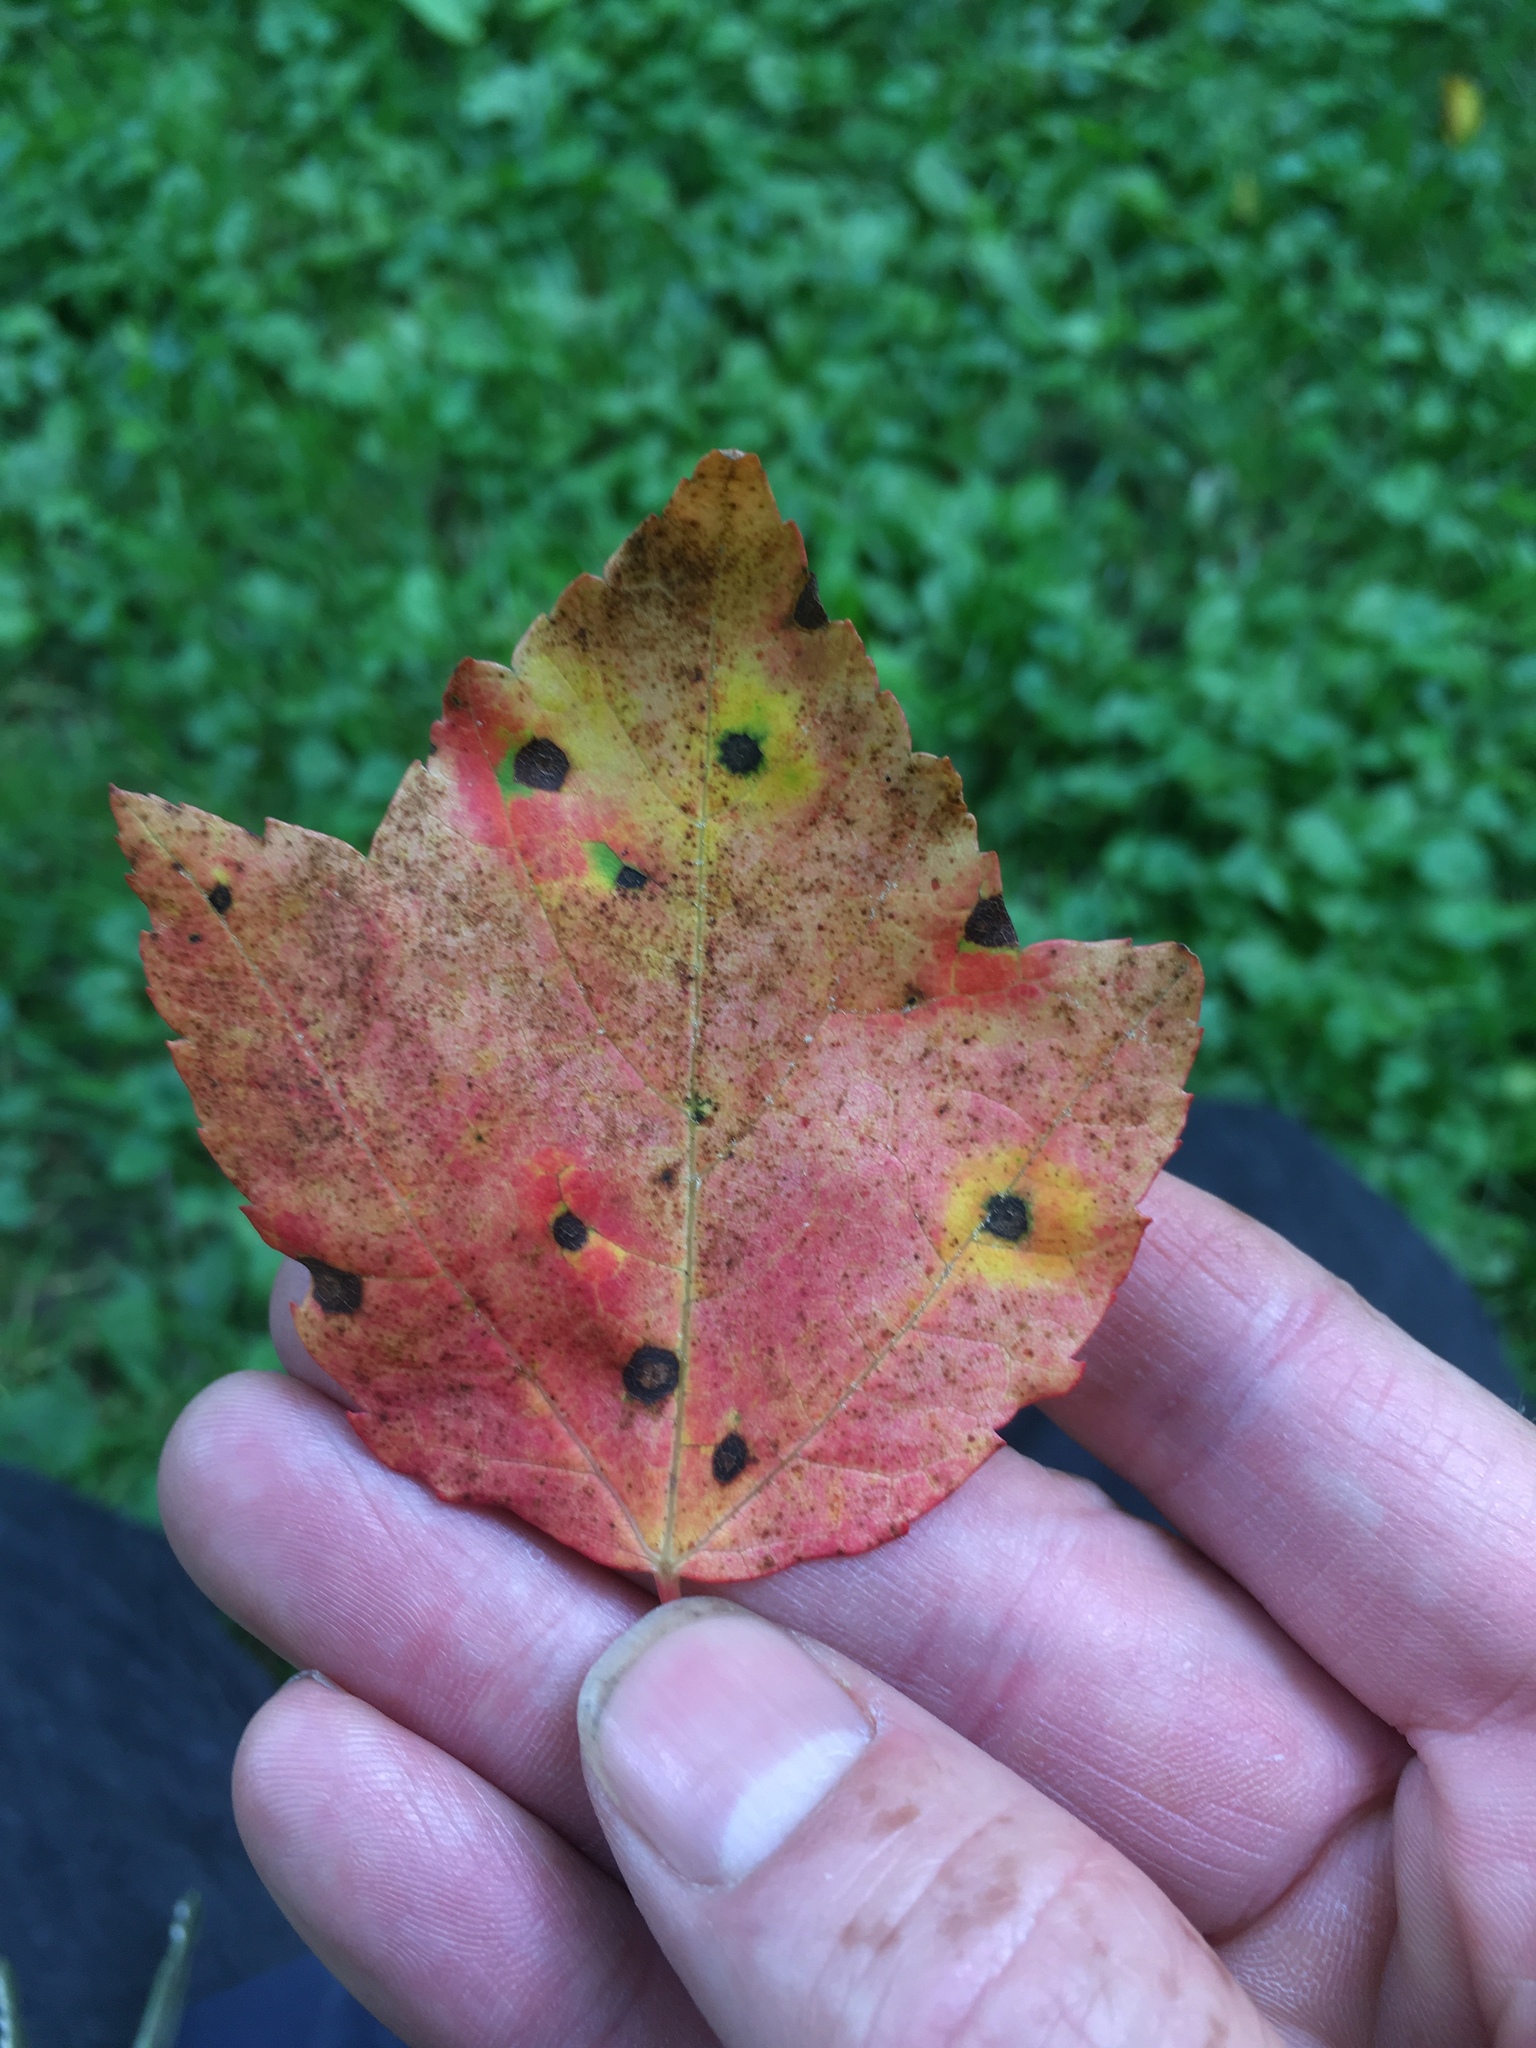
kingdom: Plantae
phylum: Tracheophyta
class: Magnoliopsida
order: Sapindales
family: Sapindaceae
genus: Acer
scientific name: Acer rubrum
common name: Red maple
